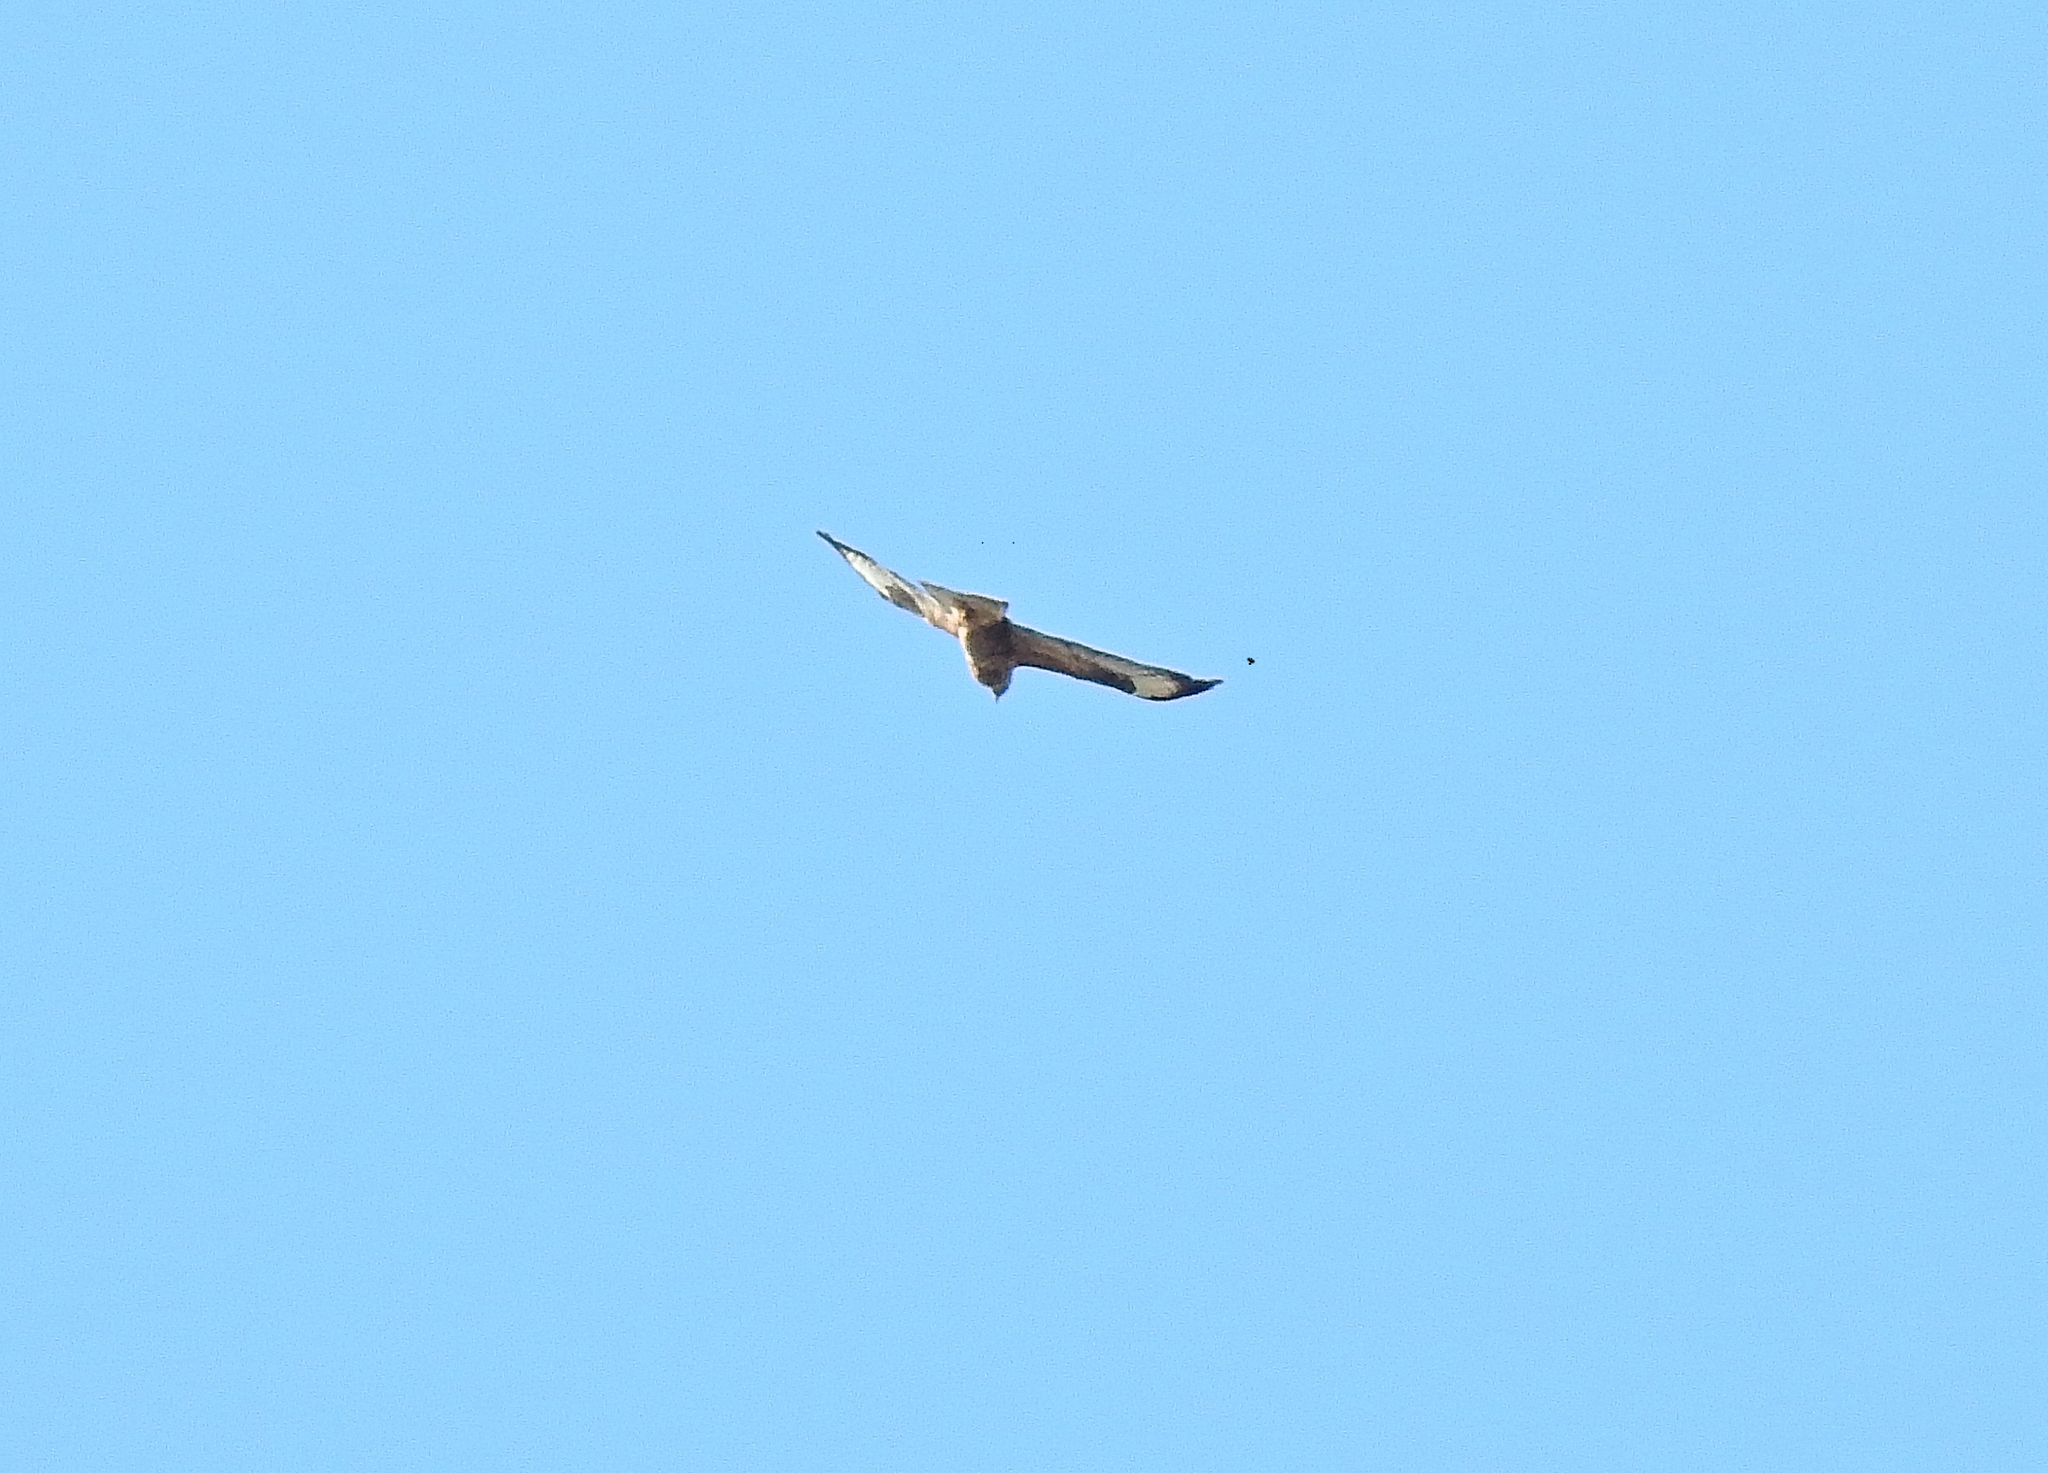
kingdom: Animalia
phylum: Chordata
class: Aves
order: Accipitriformes
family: Accipitridae
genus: Buteo
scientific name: Buteo buteo
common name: Common buzzard
